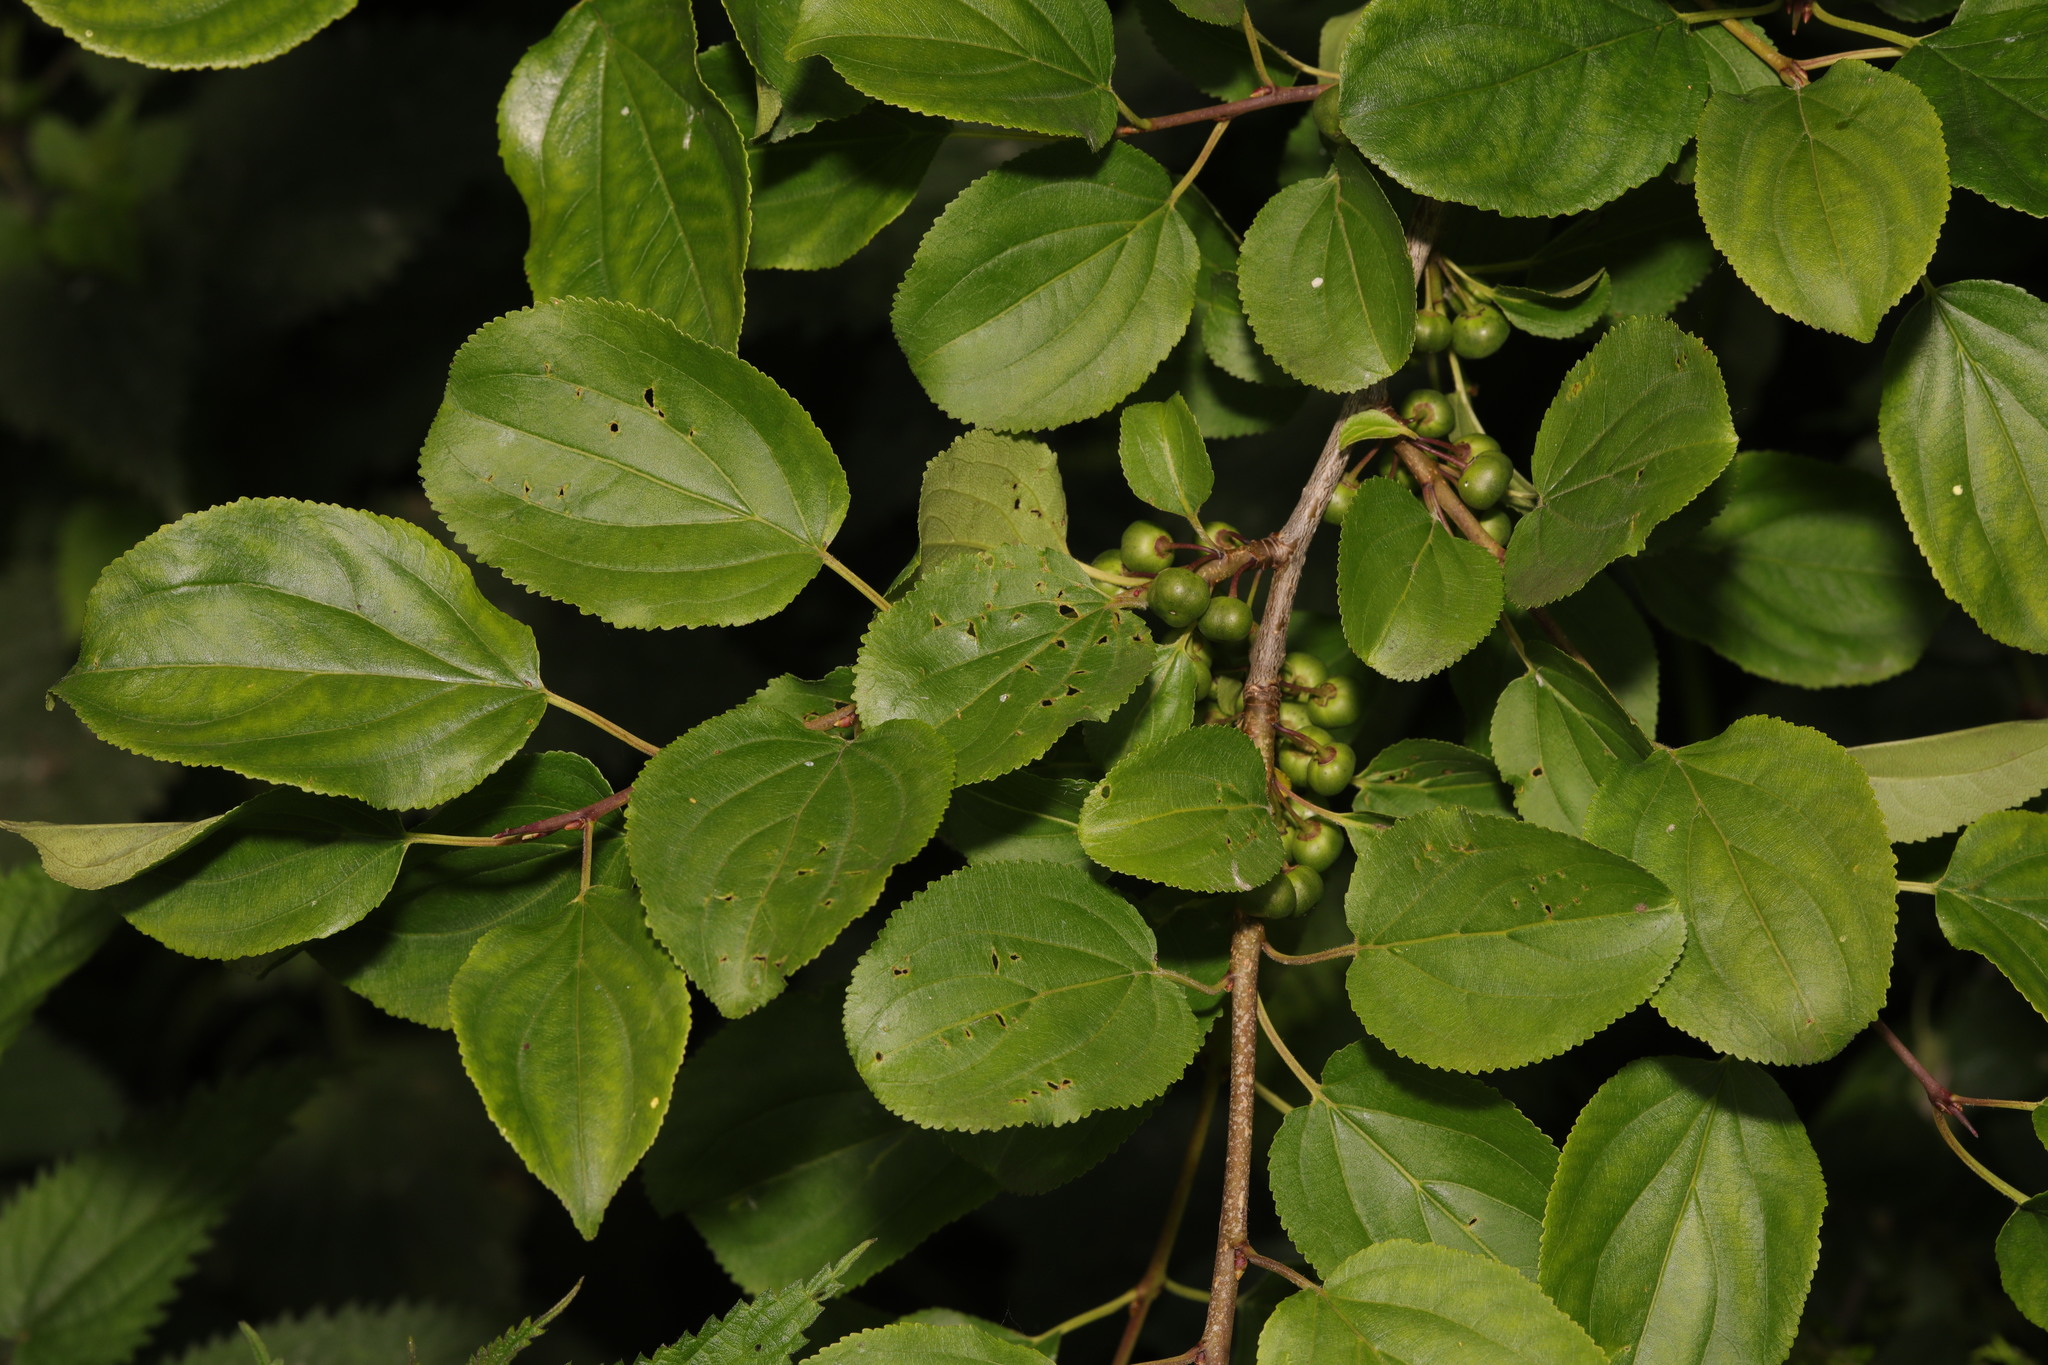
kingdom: Plantae
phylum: Tracheophyta
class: Magnoliopsida
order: Rosales
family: Rhamnaceae
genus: Rhamnus
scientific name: Rhamnus cathartica
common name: Common buckthorn
